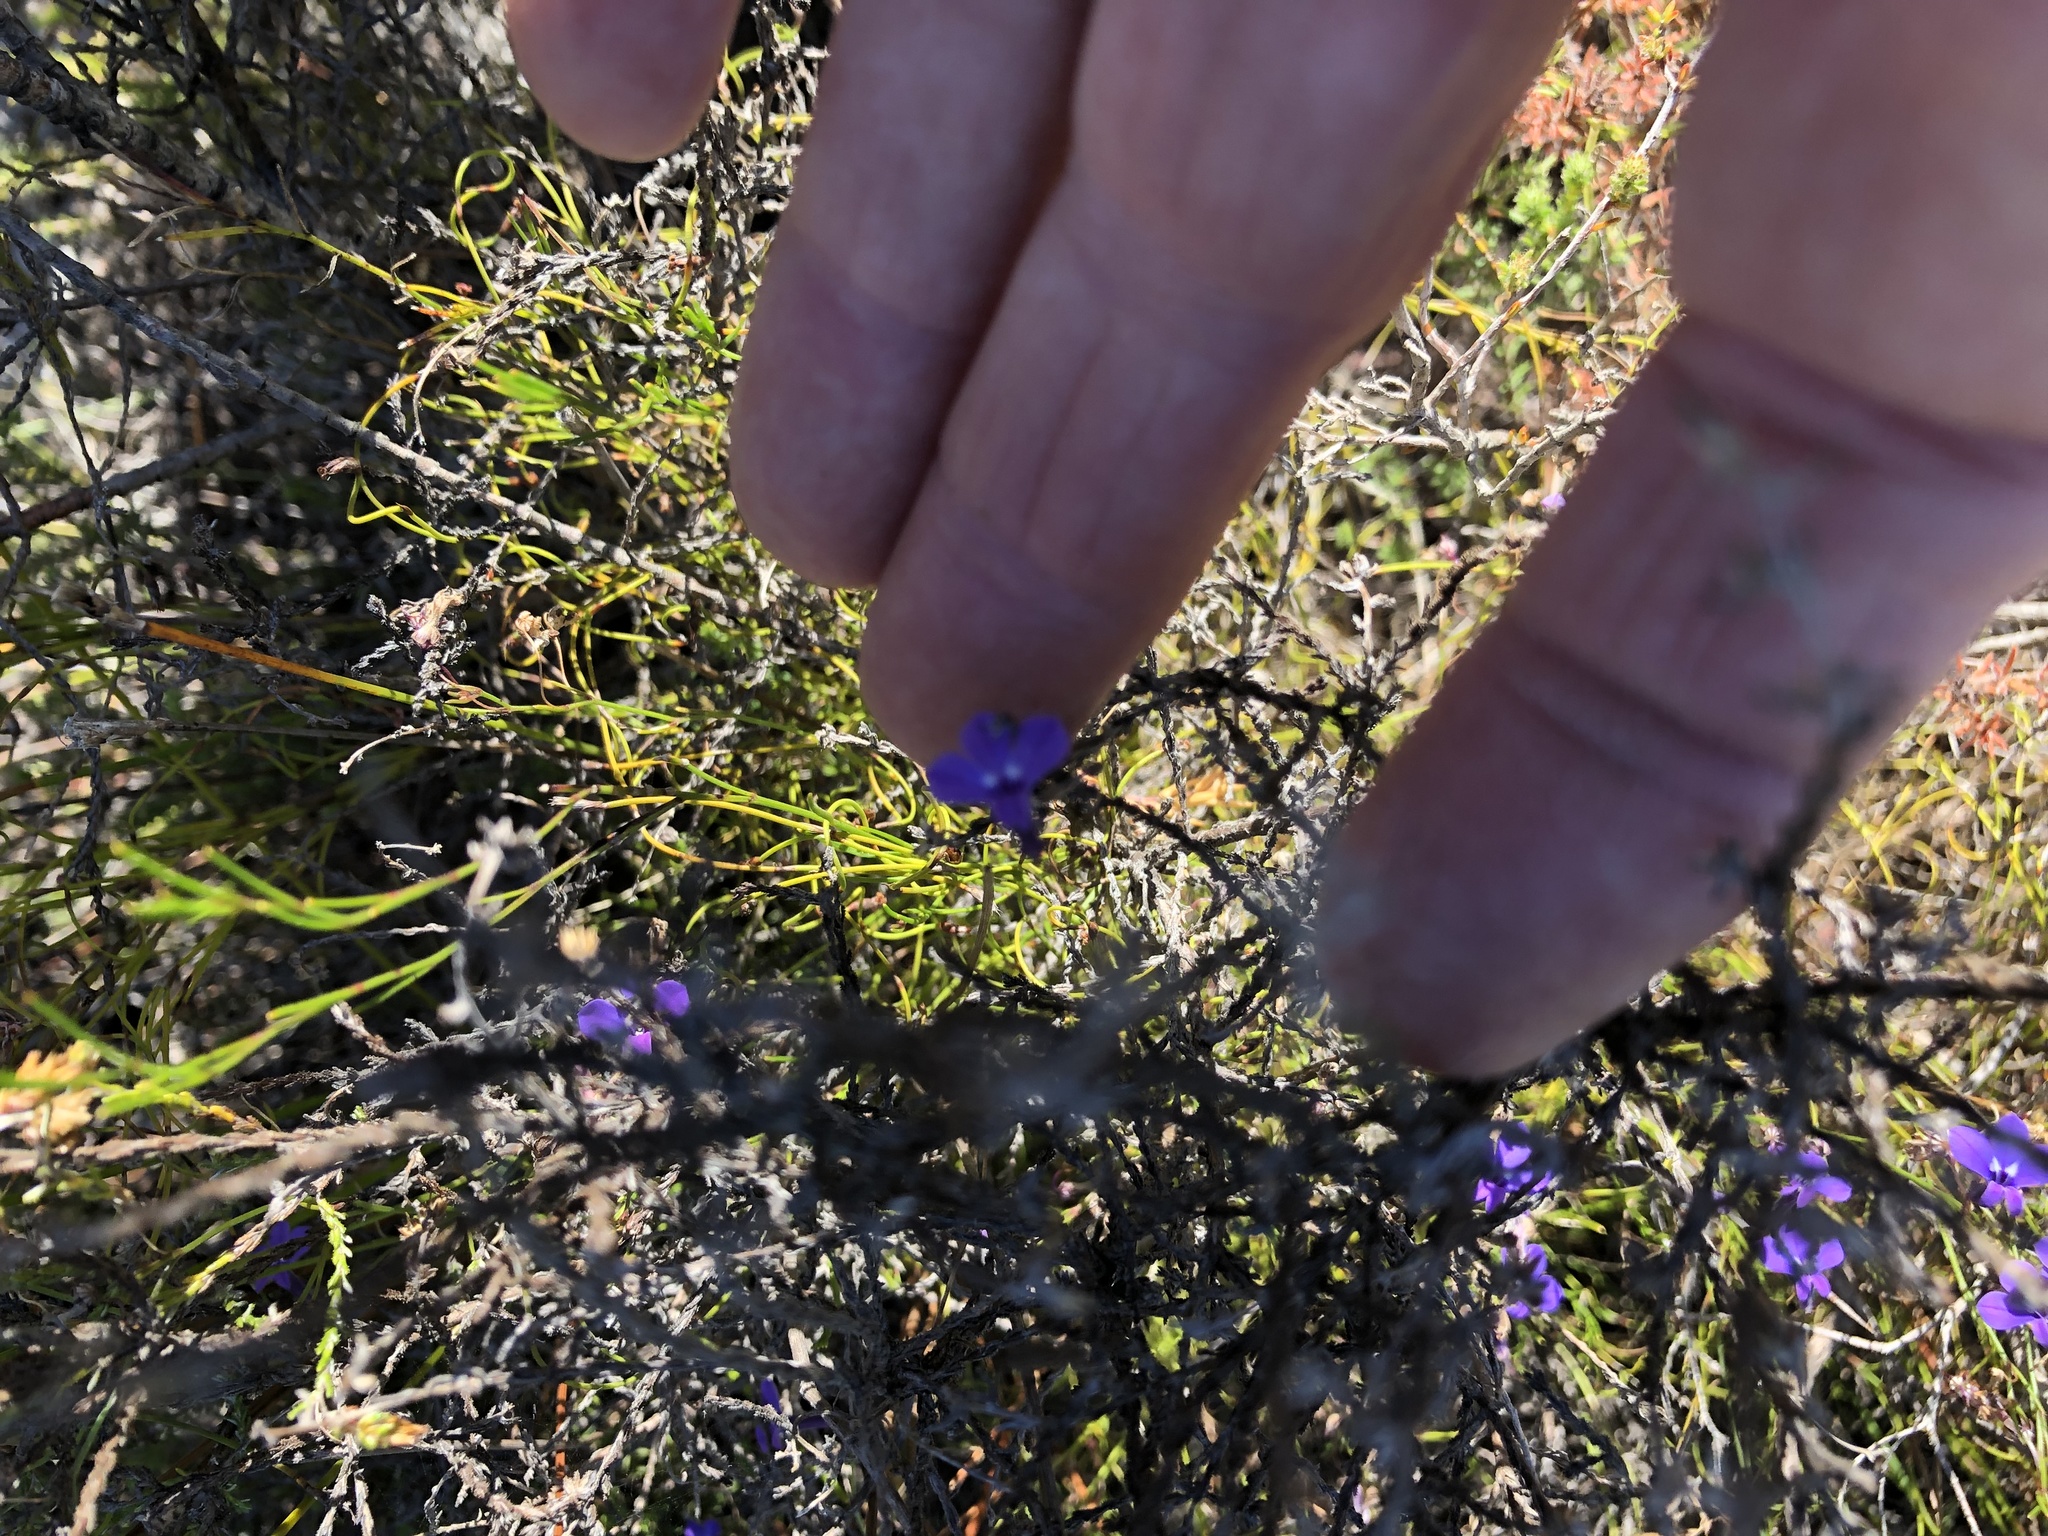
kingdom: Plantae
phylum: Tracheophyta
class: Magnoliopsida
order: Asterales
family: Campanulaceae
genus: Lobelia
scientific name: Lobelia setacea
